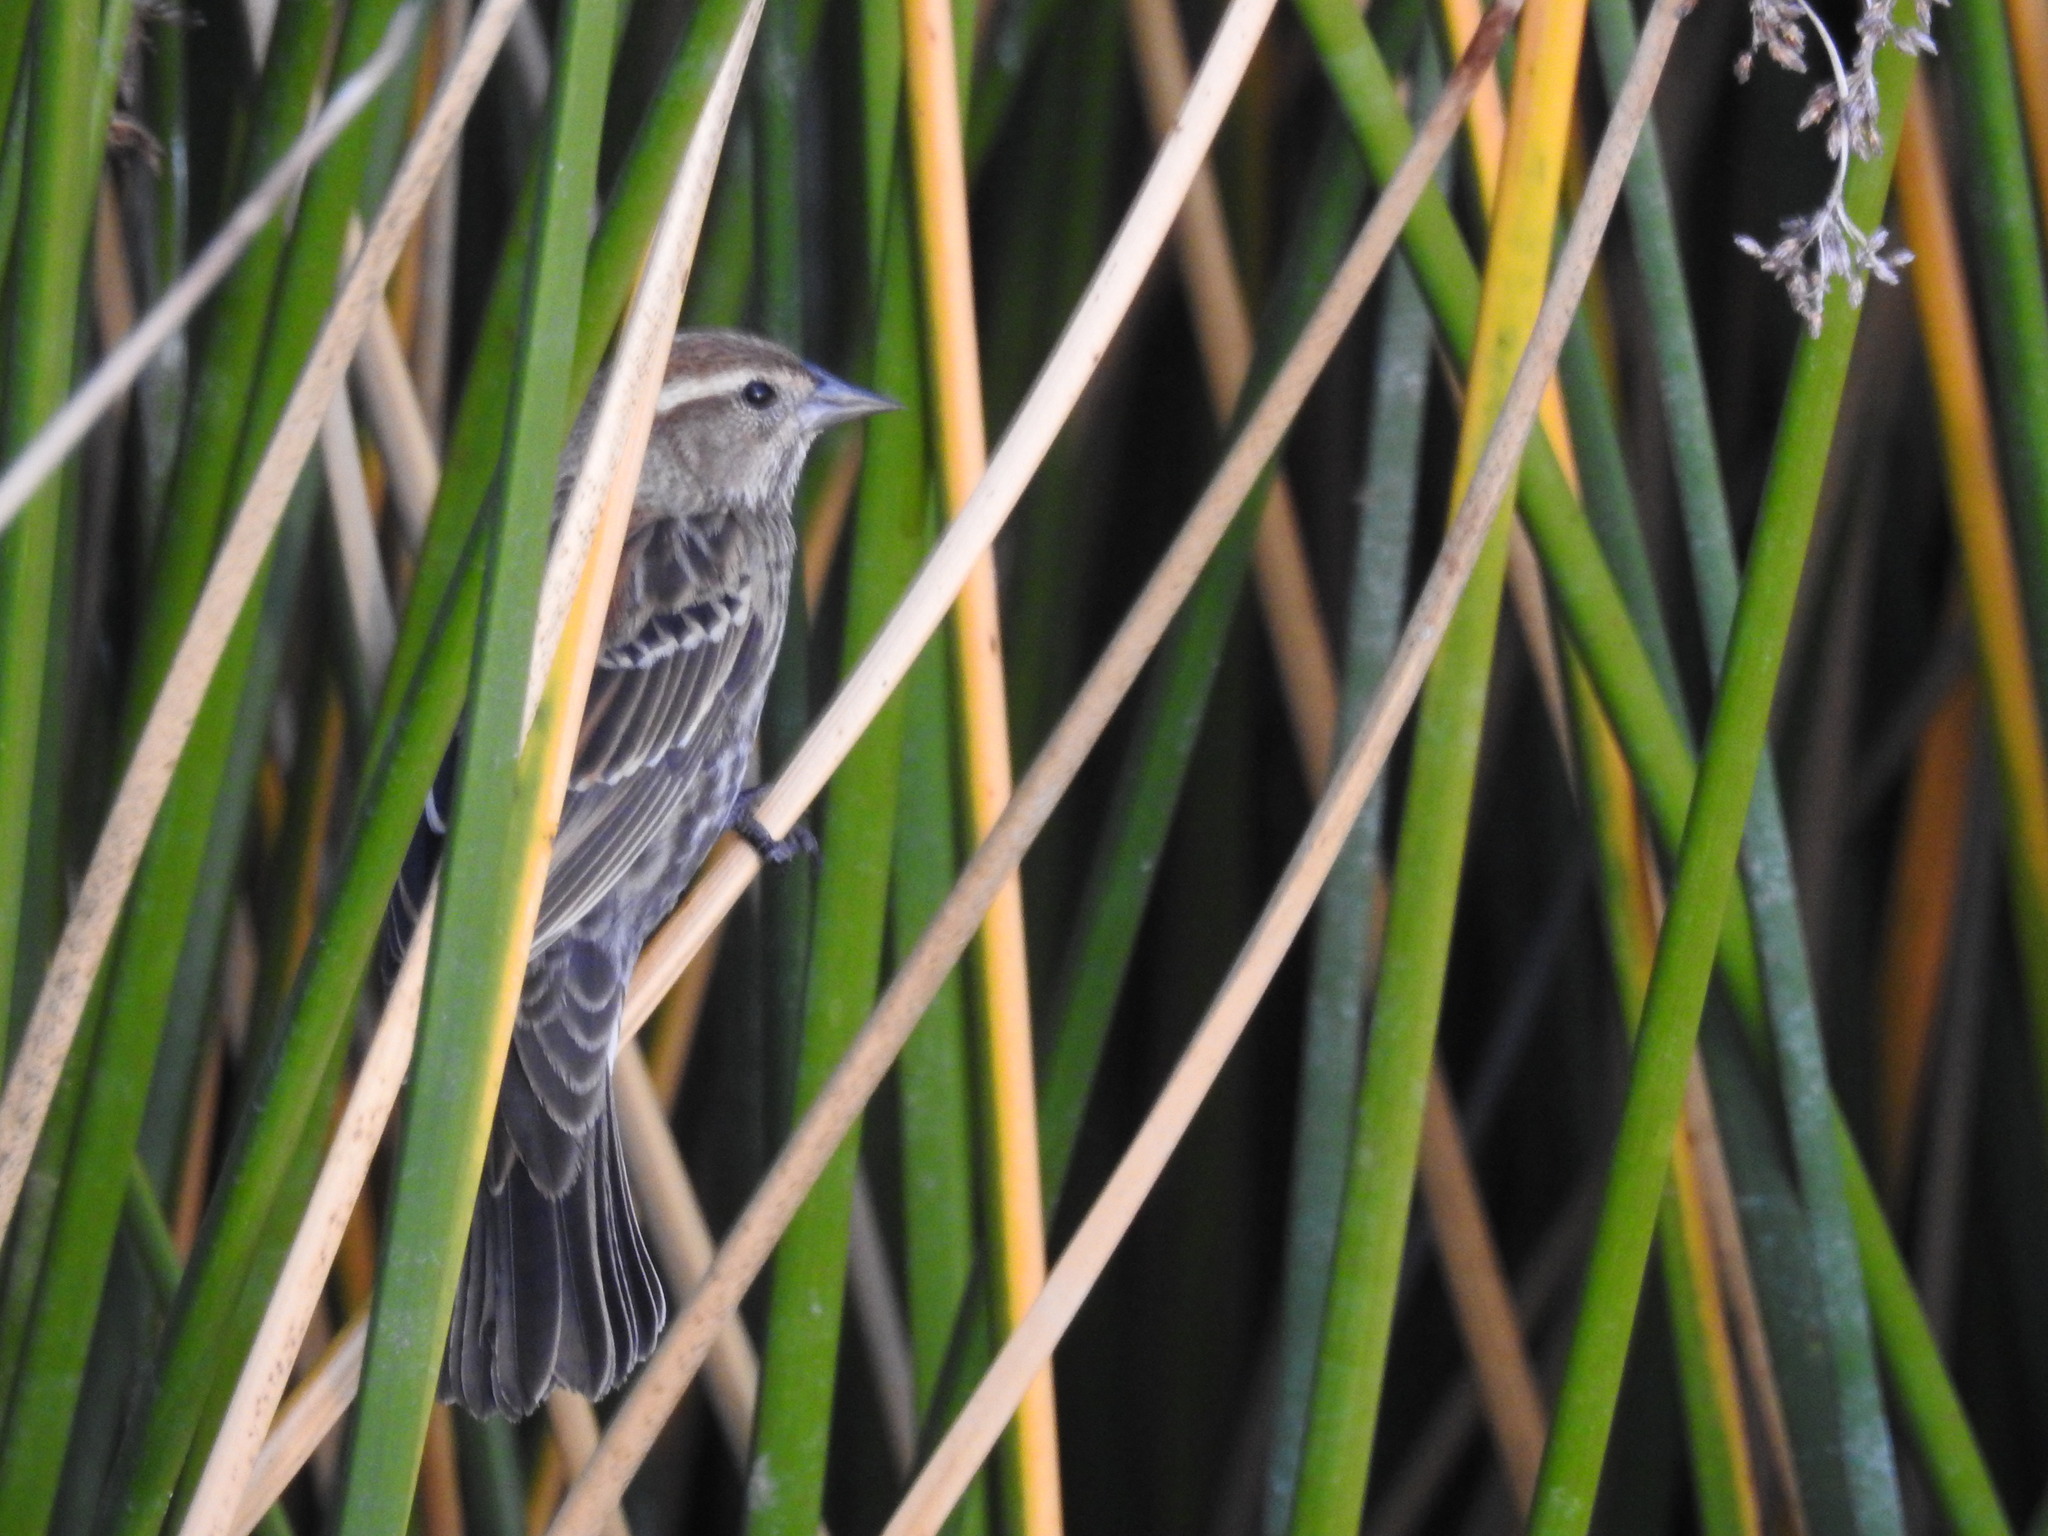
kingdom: Animalia
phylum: Chordata
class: Aves
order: Passeriformes
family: Icteridae
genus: Agelaius
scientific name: Agelaius phoeniceus
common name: Red-winged blackbird
